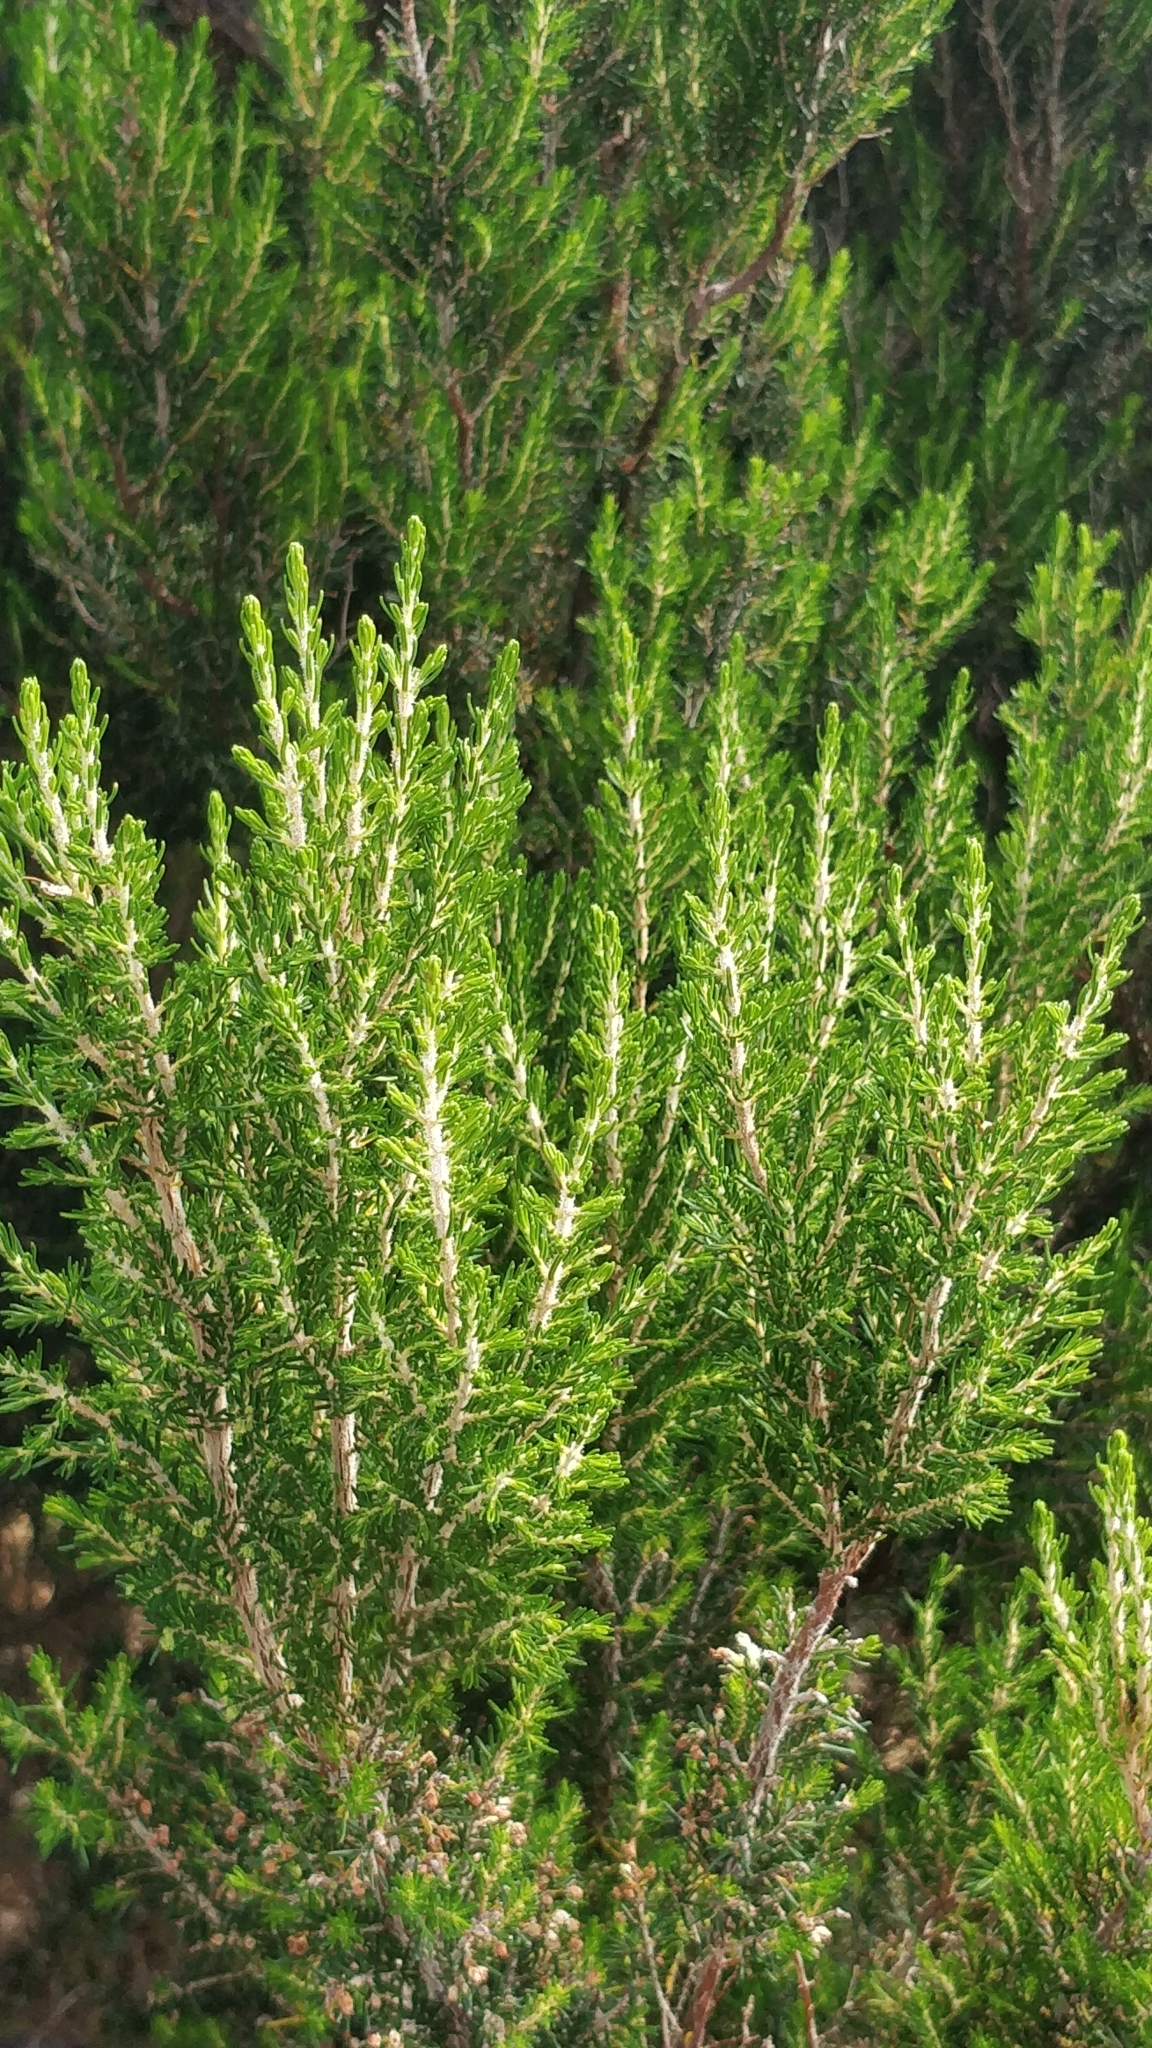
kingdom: Plantae
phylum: Tracheophyta
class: Magnoliopsida
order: Ericales
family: Ericaceae
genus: Erica
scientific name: Erica canariensis
